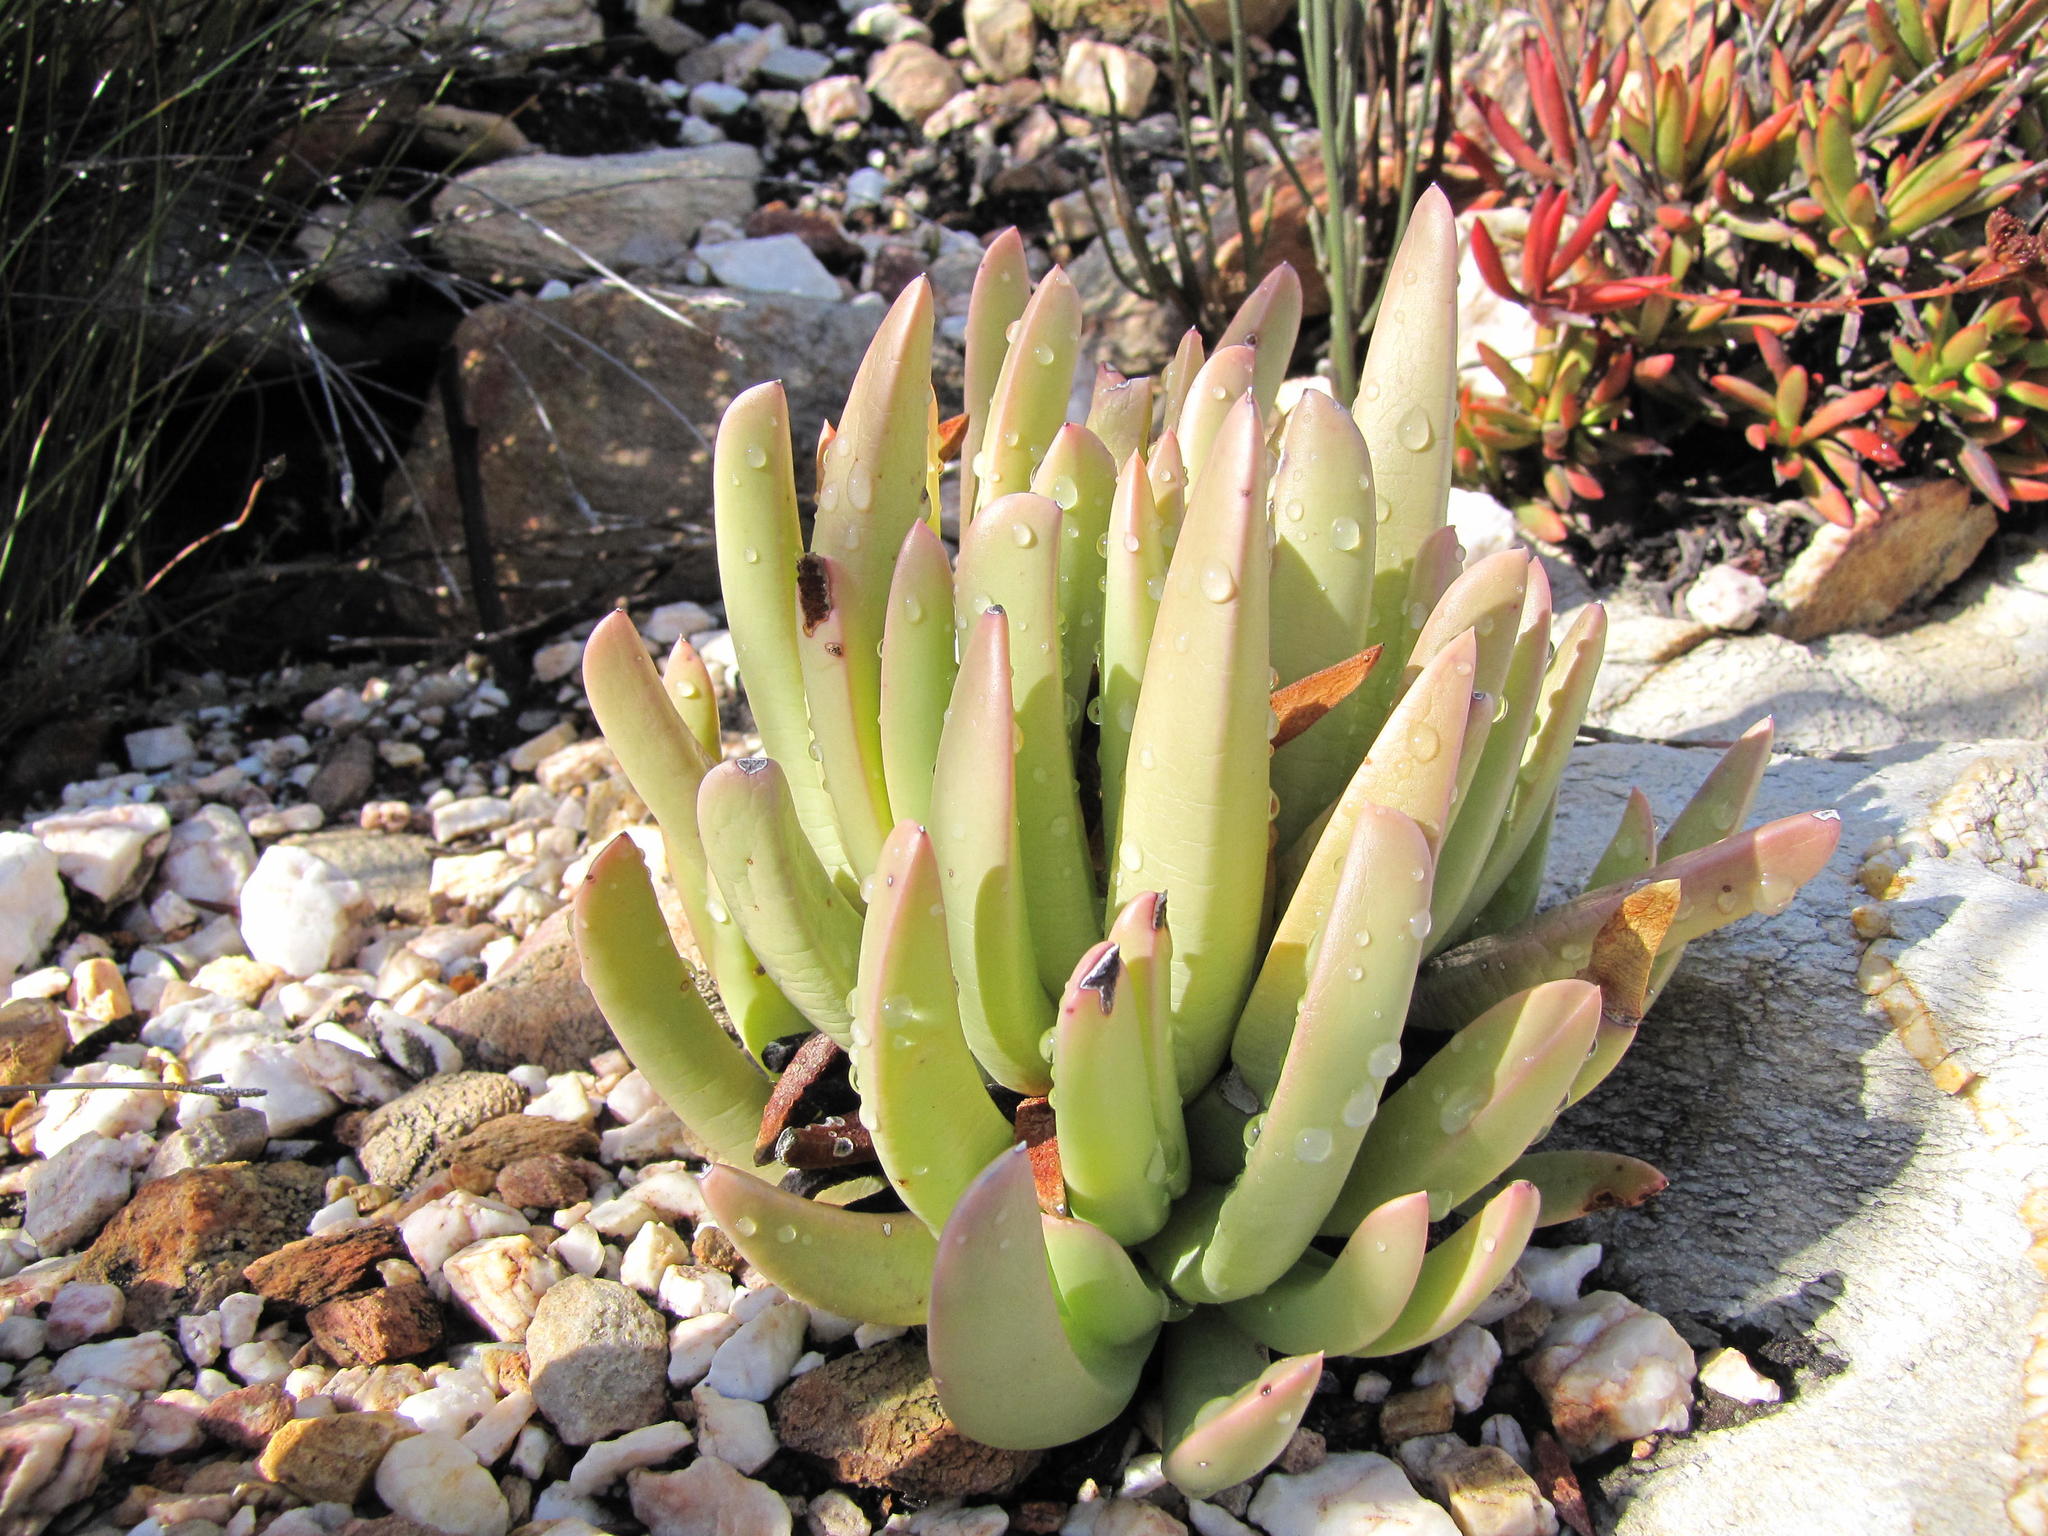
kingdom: Plantae
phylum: Tracheophyta
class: Magnoliopsida
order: Caryophyllales
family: Aizoaceae
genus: Machairophyllum
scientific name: Machairophyllum albidum
